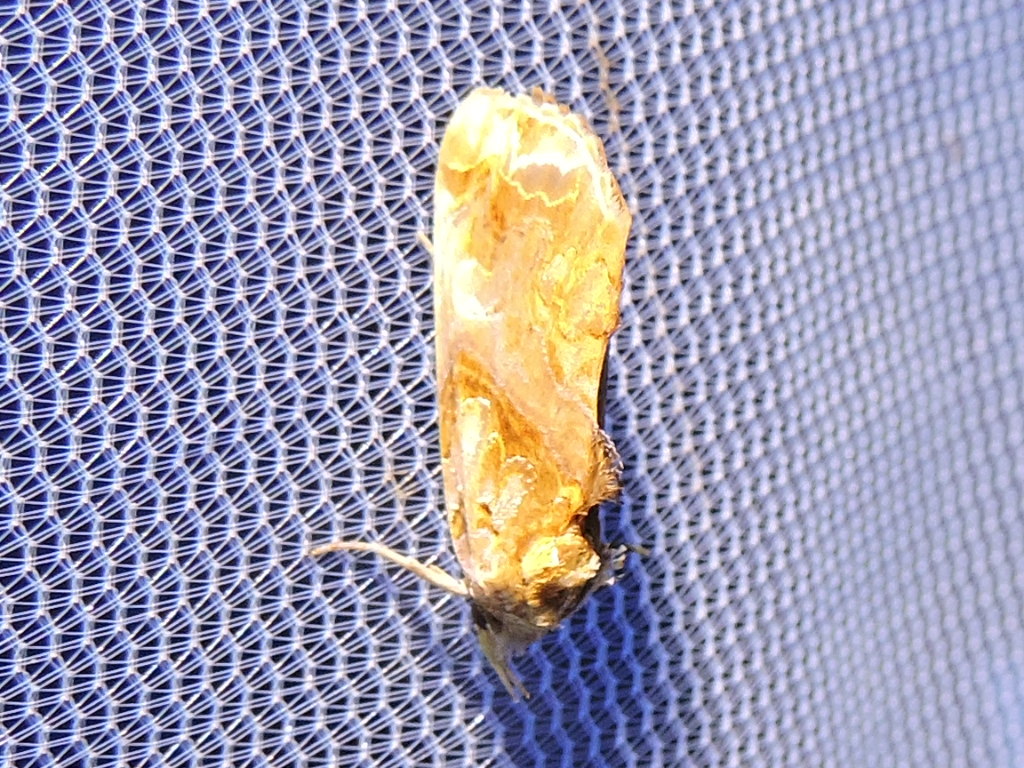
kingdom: Animalia
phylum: Arthropoda
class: Insecta
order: Lepidoptera
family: Erebidae
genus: Plusiodonta
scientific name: Plusiodonta compressipalpis
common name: Moonseed moth
